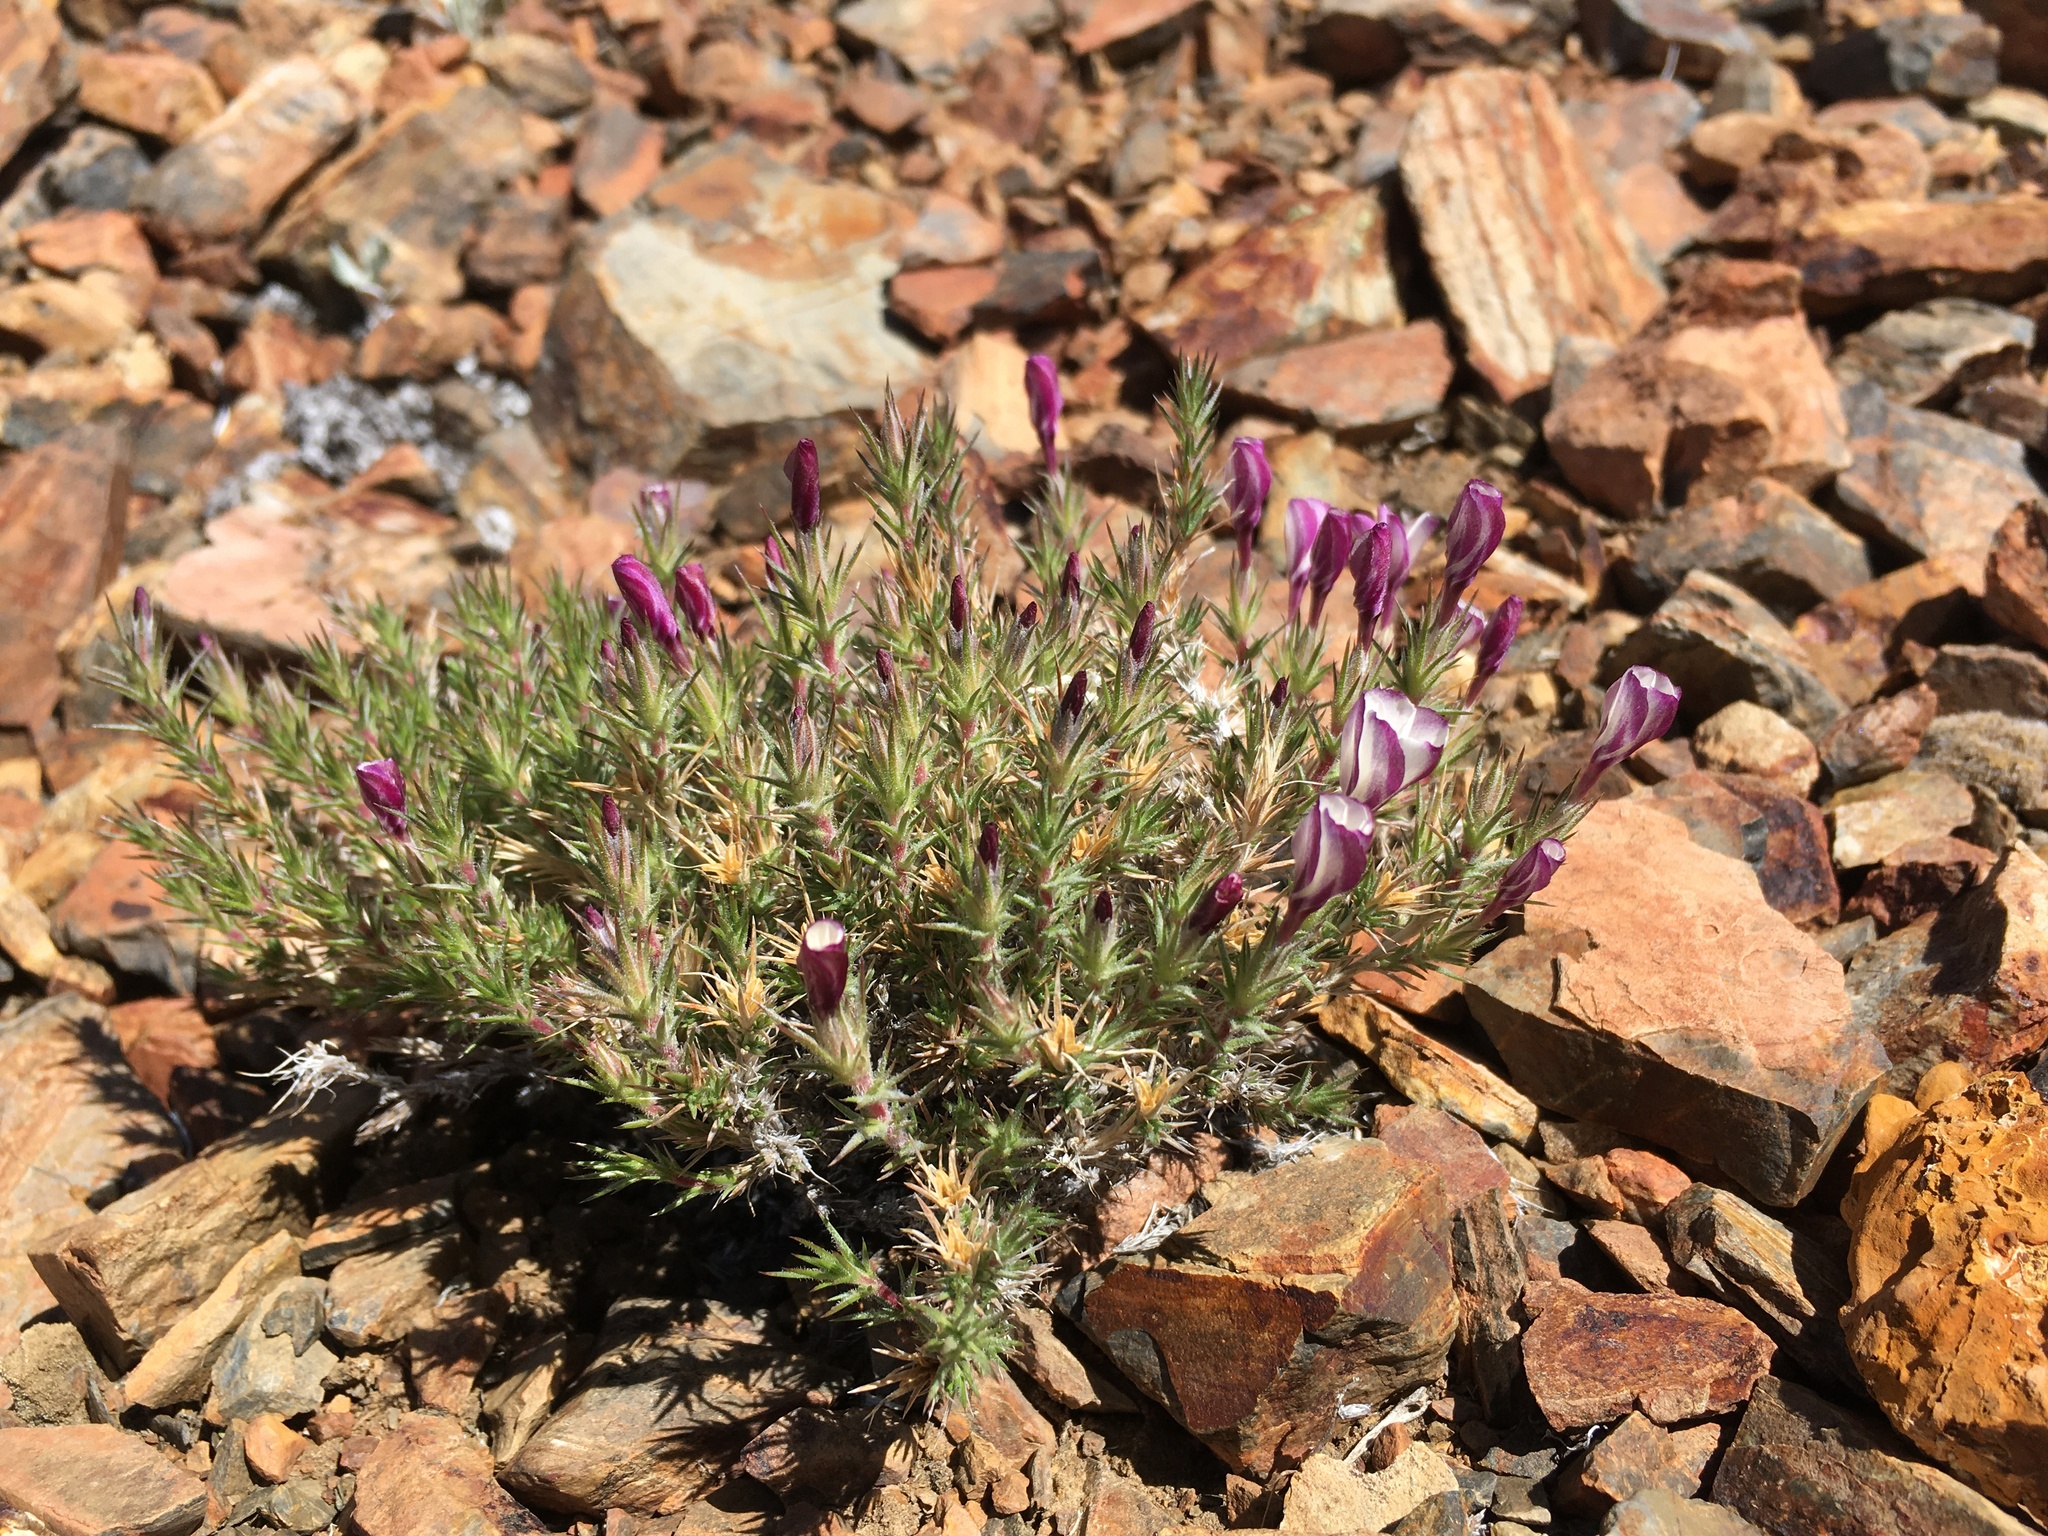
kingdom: Plantae
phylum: Tracheophyta
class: Magnoliopsida
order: Ericales
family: Polemoniaceae
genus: Linanthus
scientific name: Linanthus pungens
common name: Granite prickly phlox
